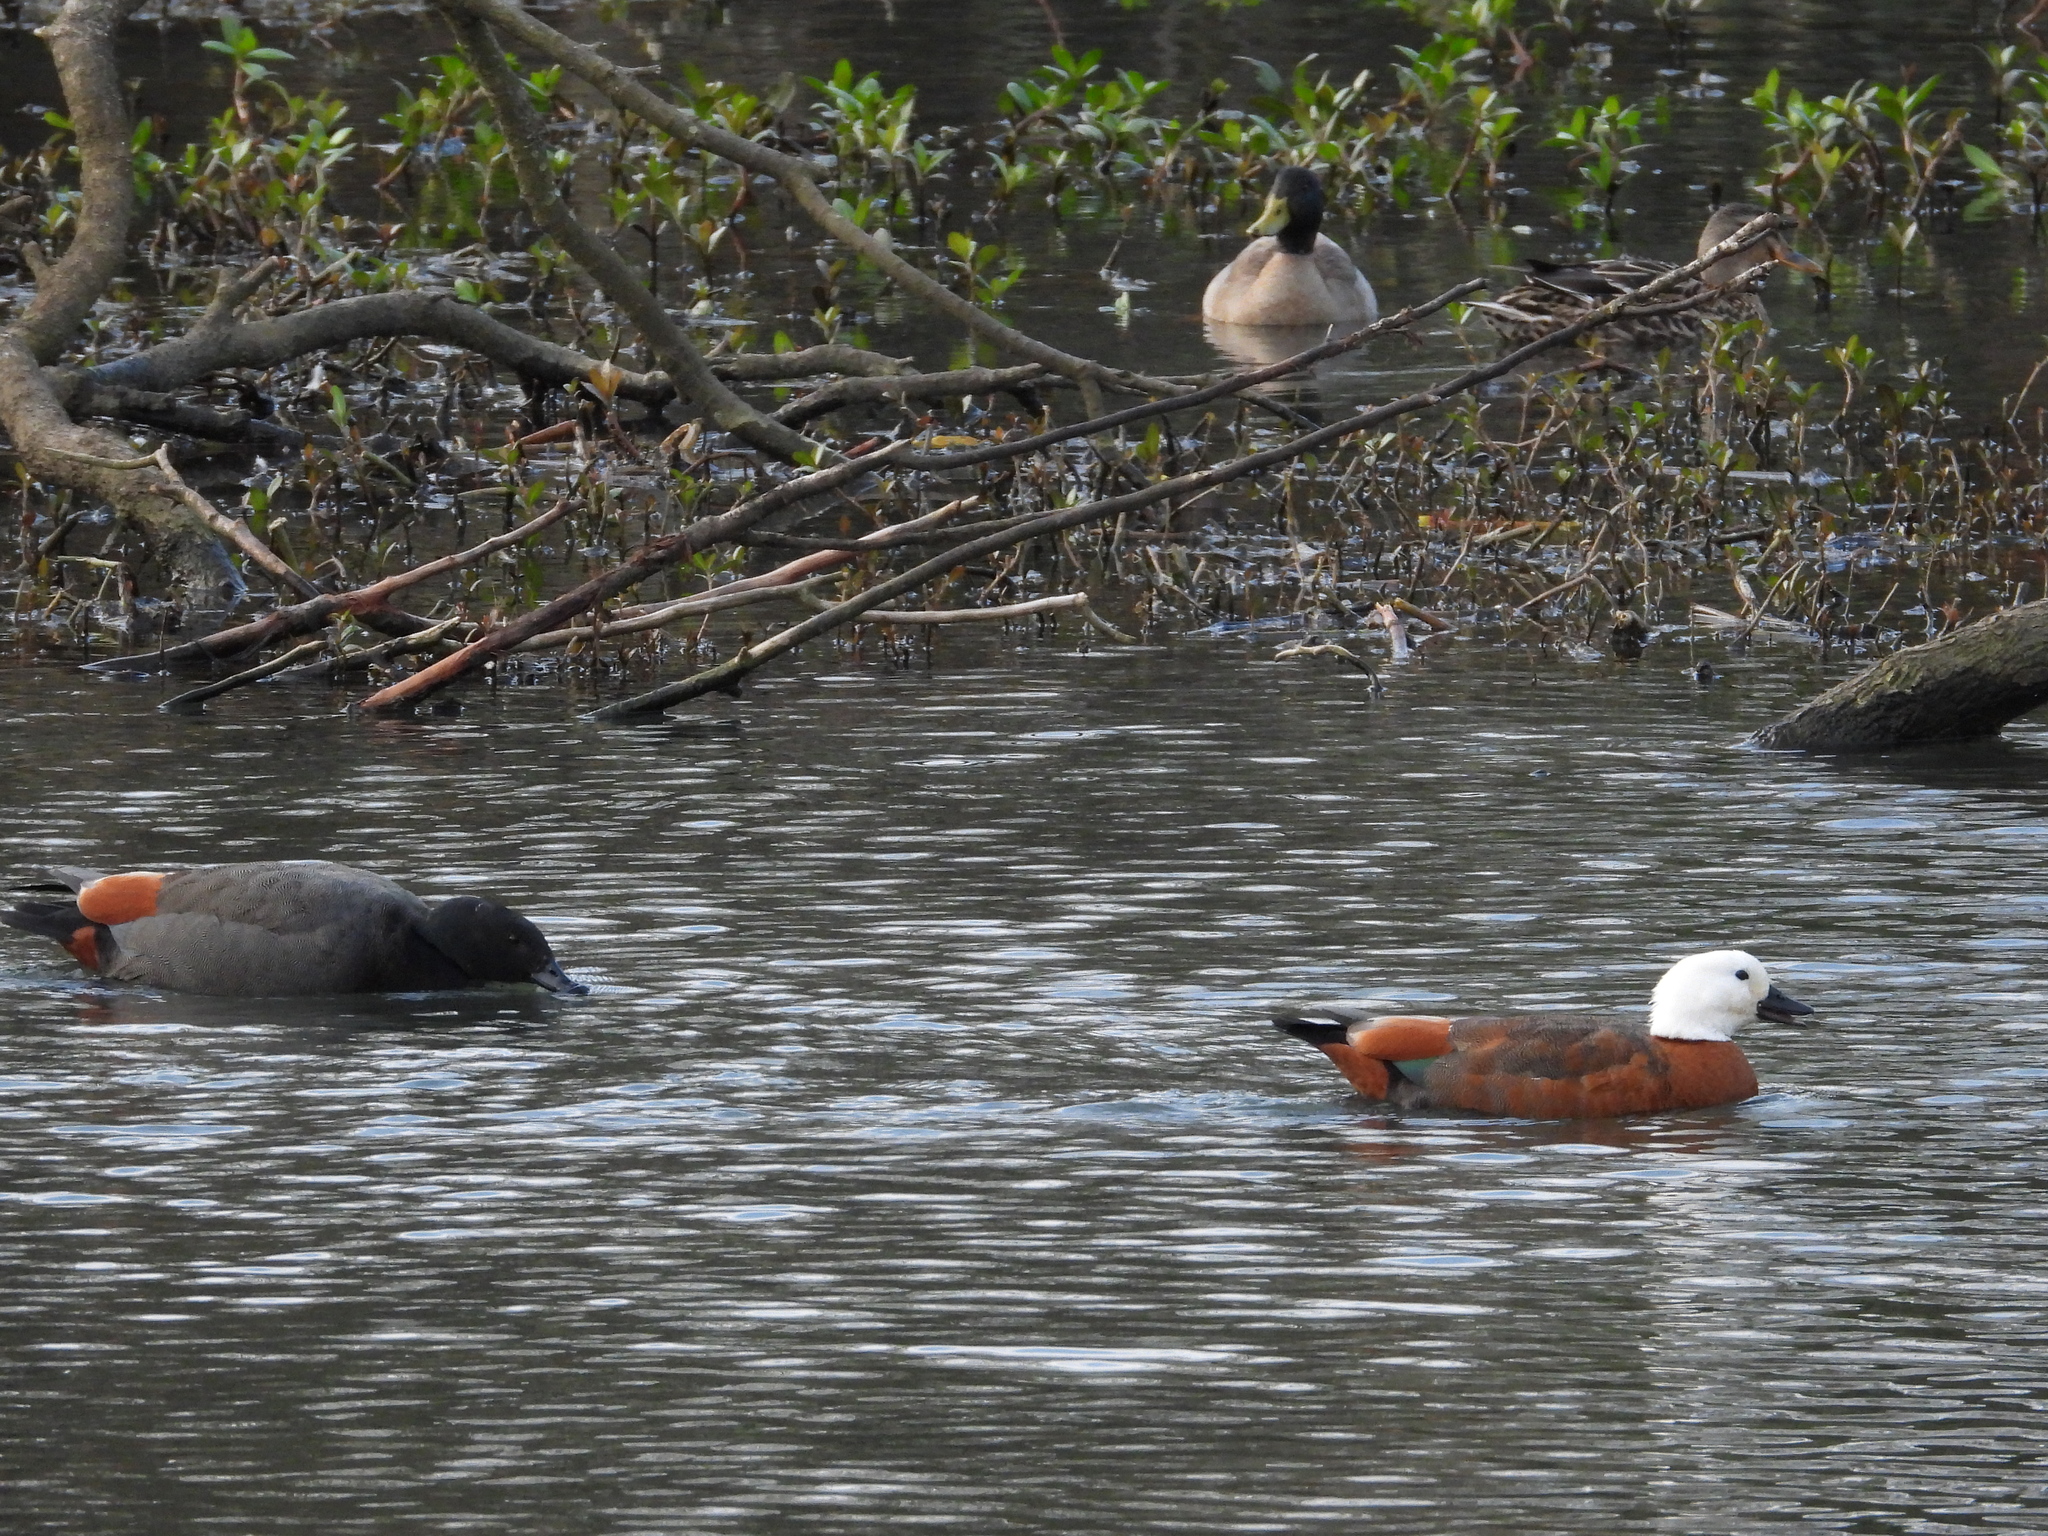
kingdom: Animalia
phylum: Chordata
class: Aves
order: Anseriformes
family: Anatidae
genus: Tadorna
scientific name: Tadorna variegata
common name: Paradise shelduck
